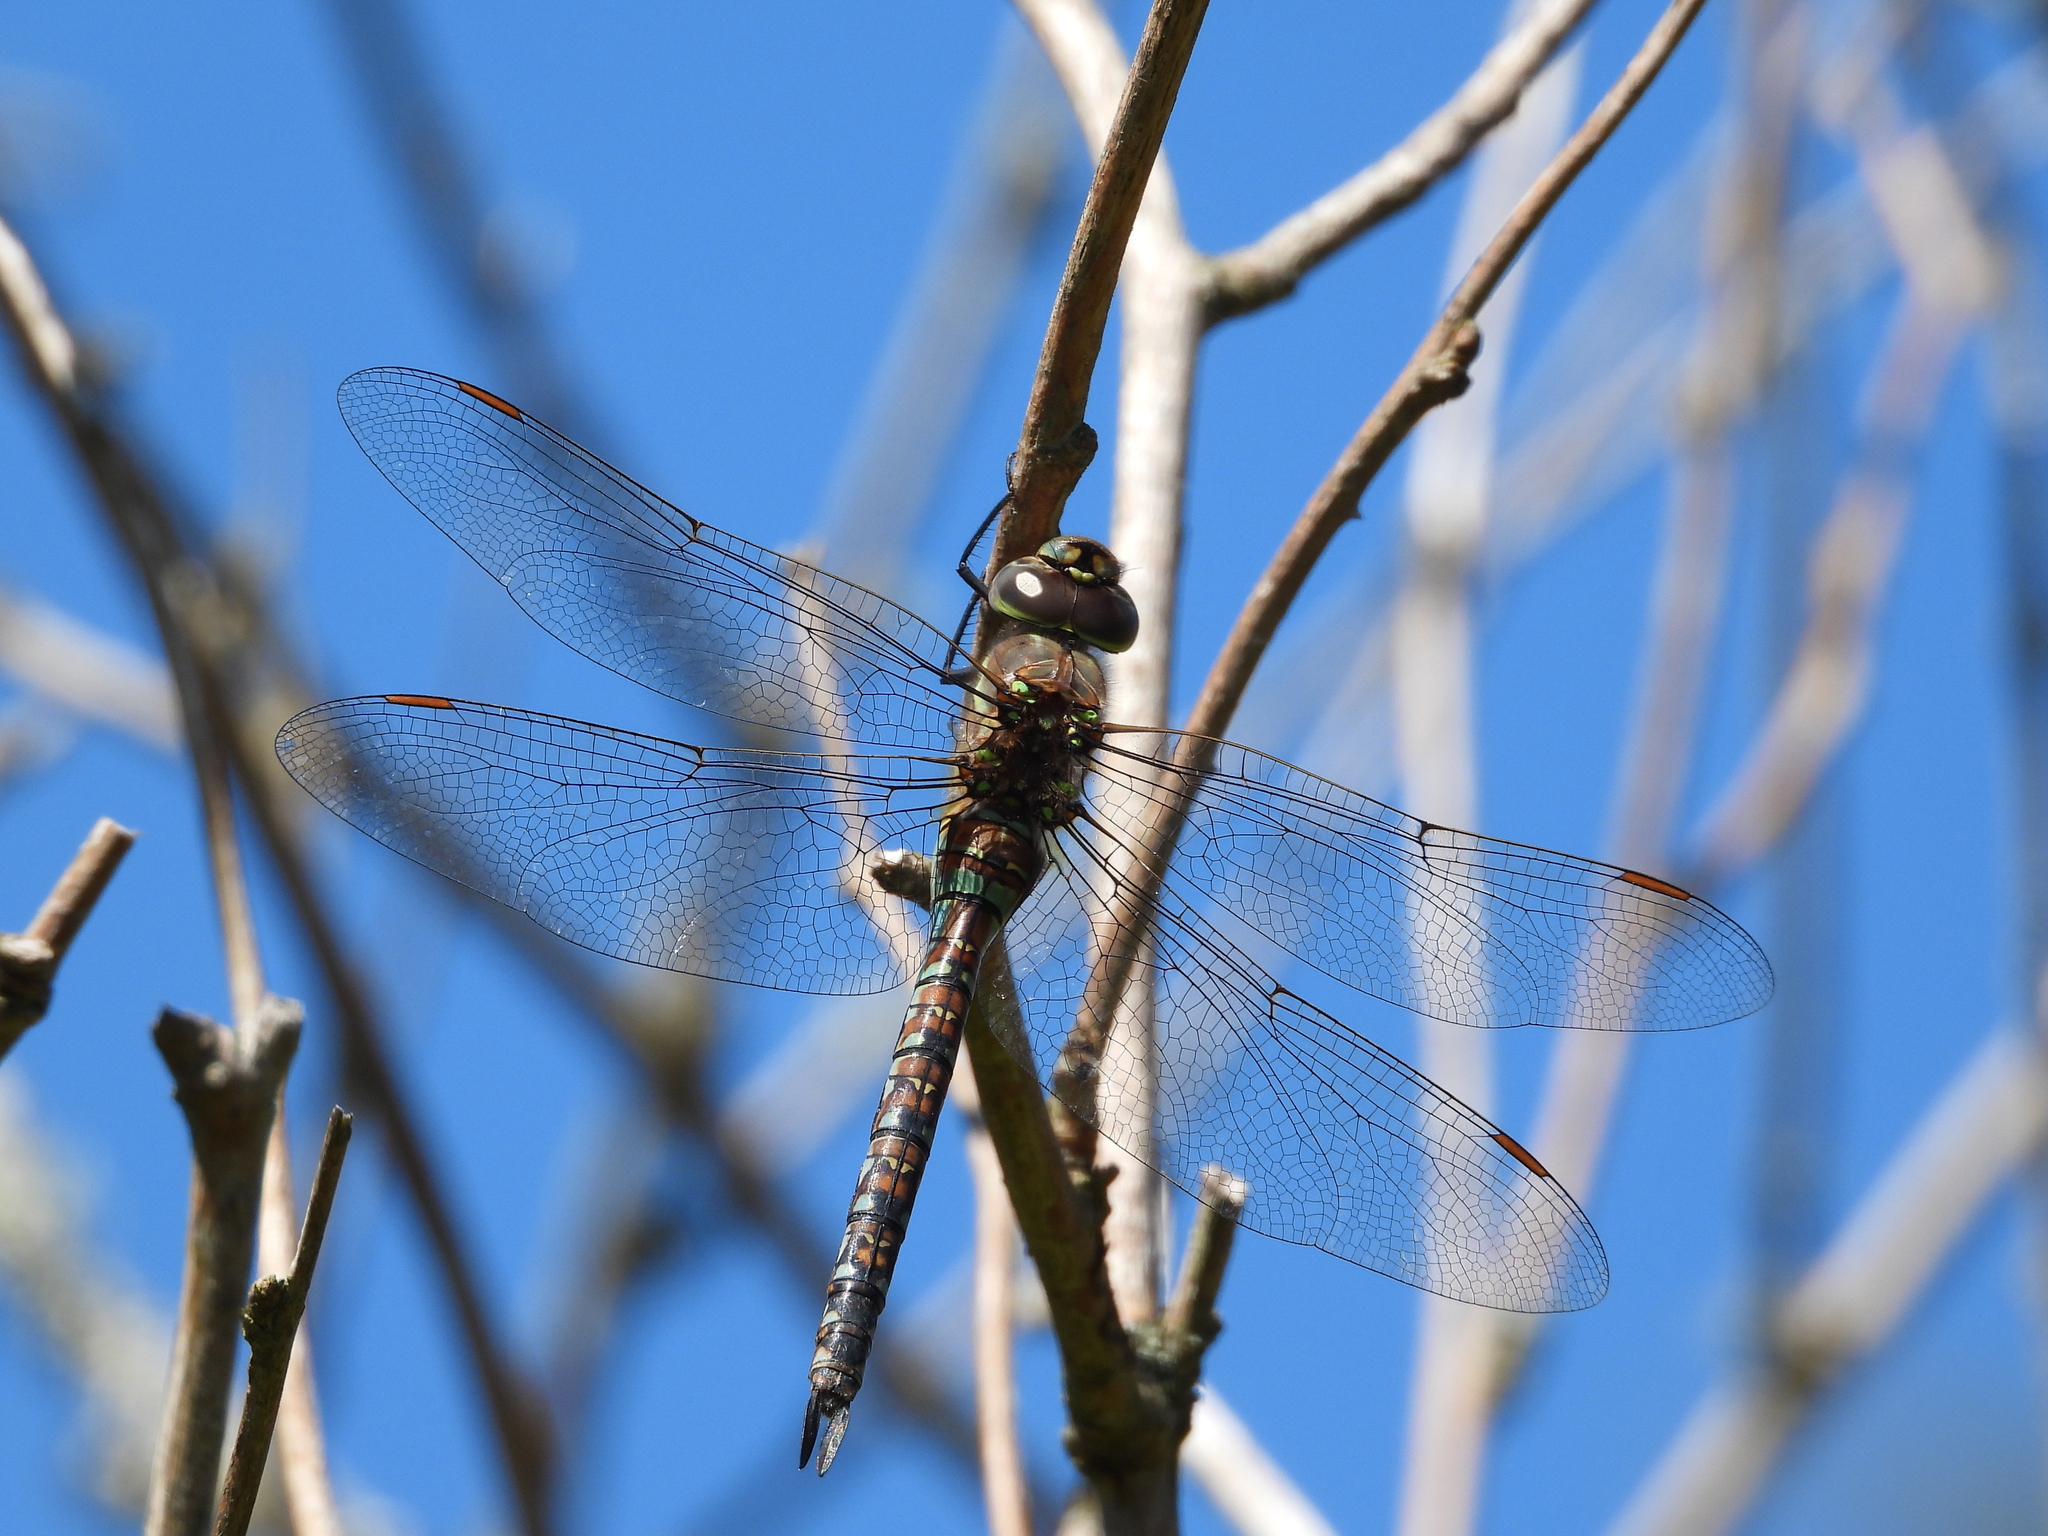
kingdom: Animalia
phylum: Arthropoda
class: Insecta
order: Odonata
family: Aeshnidae
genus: Rhionaeschna
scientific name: Rhionaeschna multicolor
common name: Blue-eyed darner
